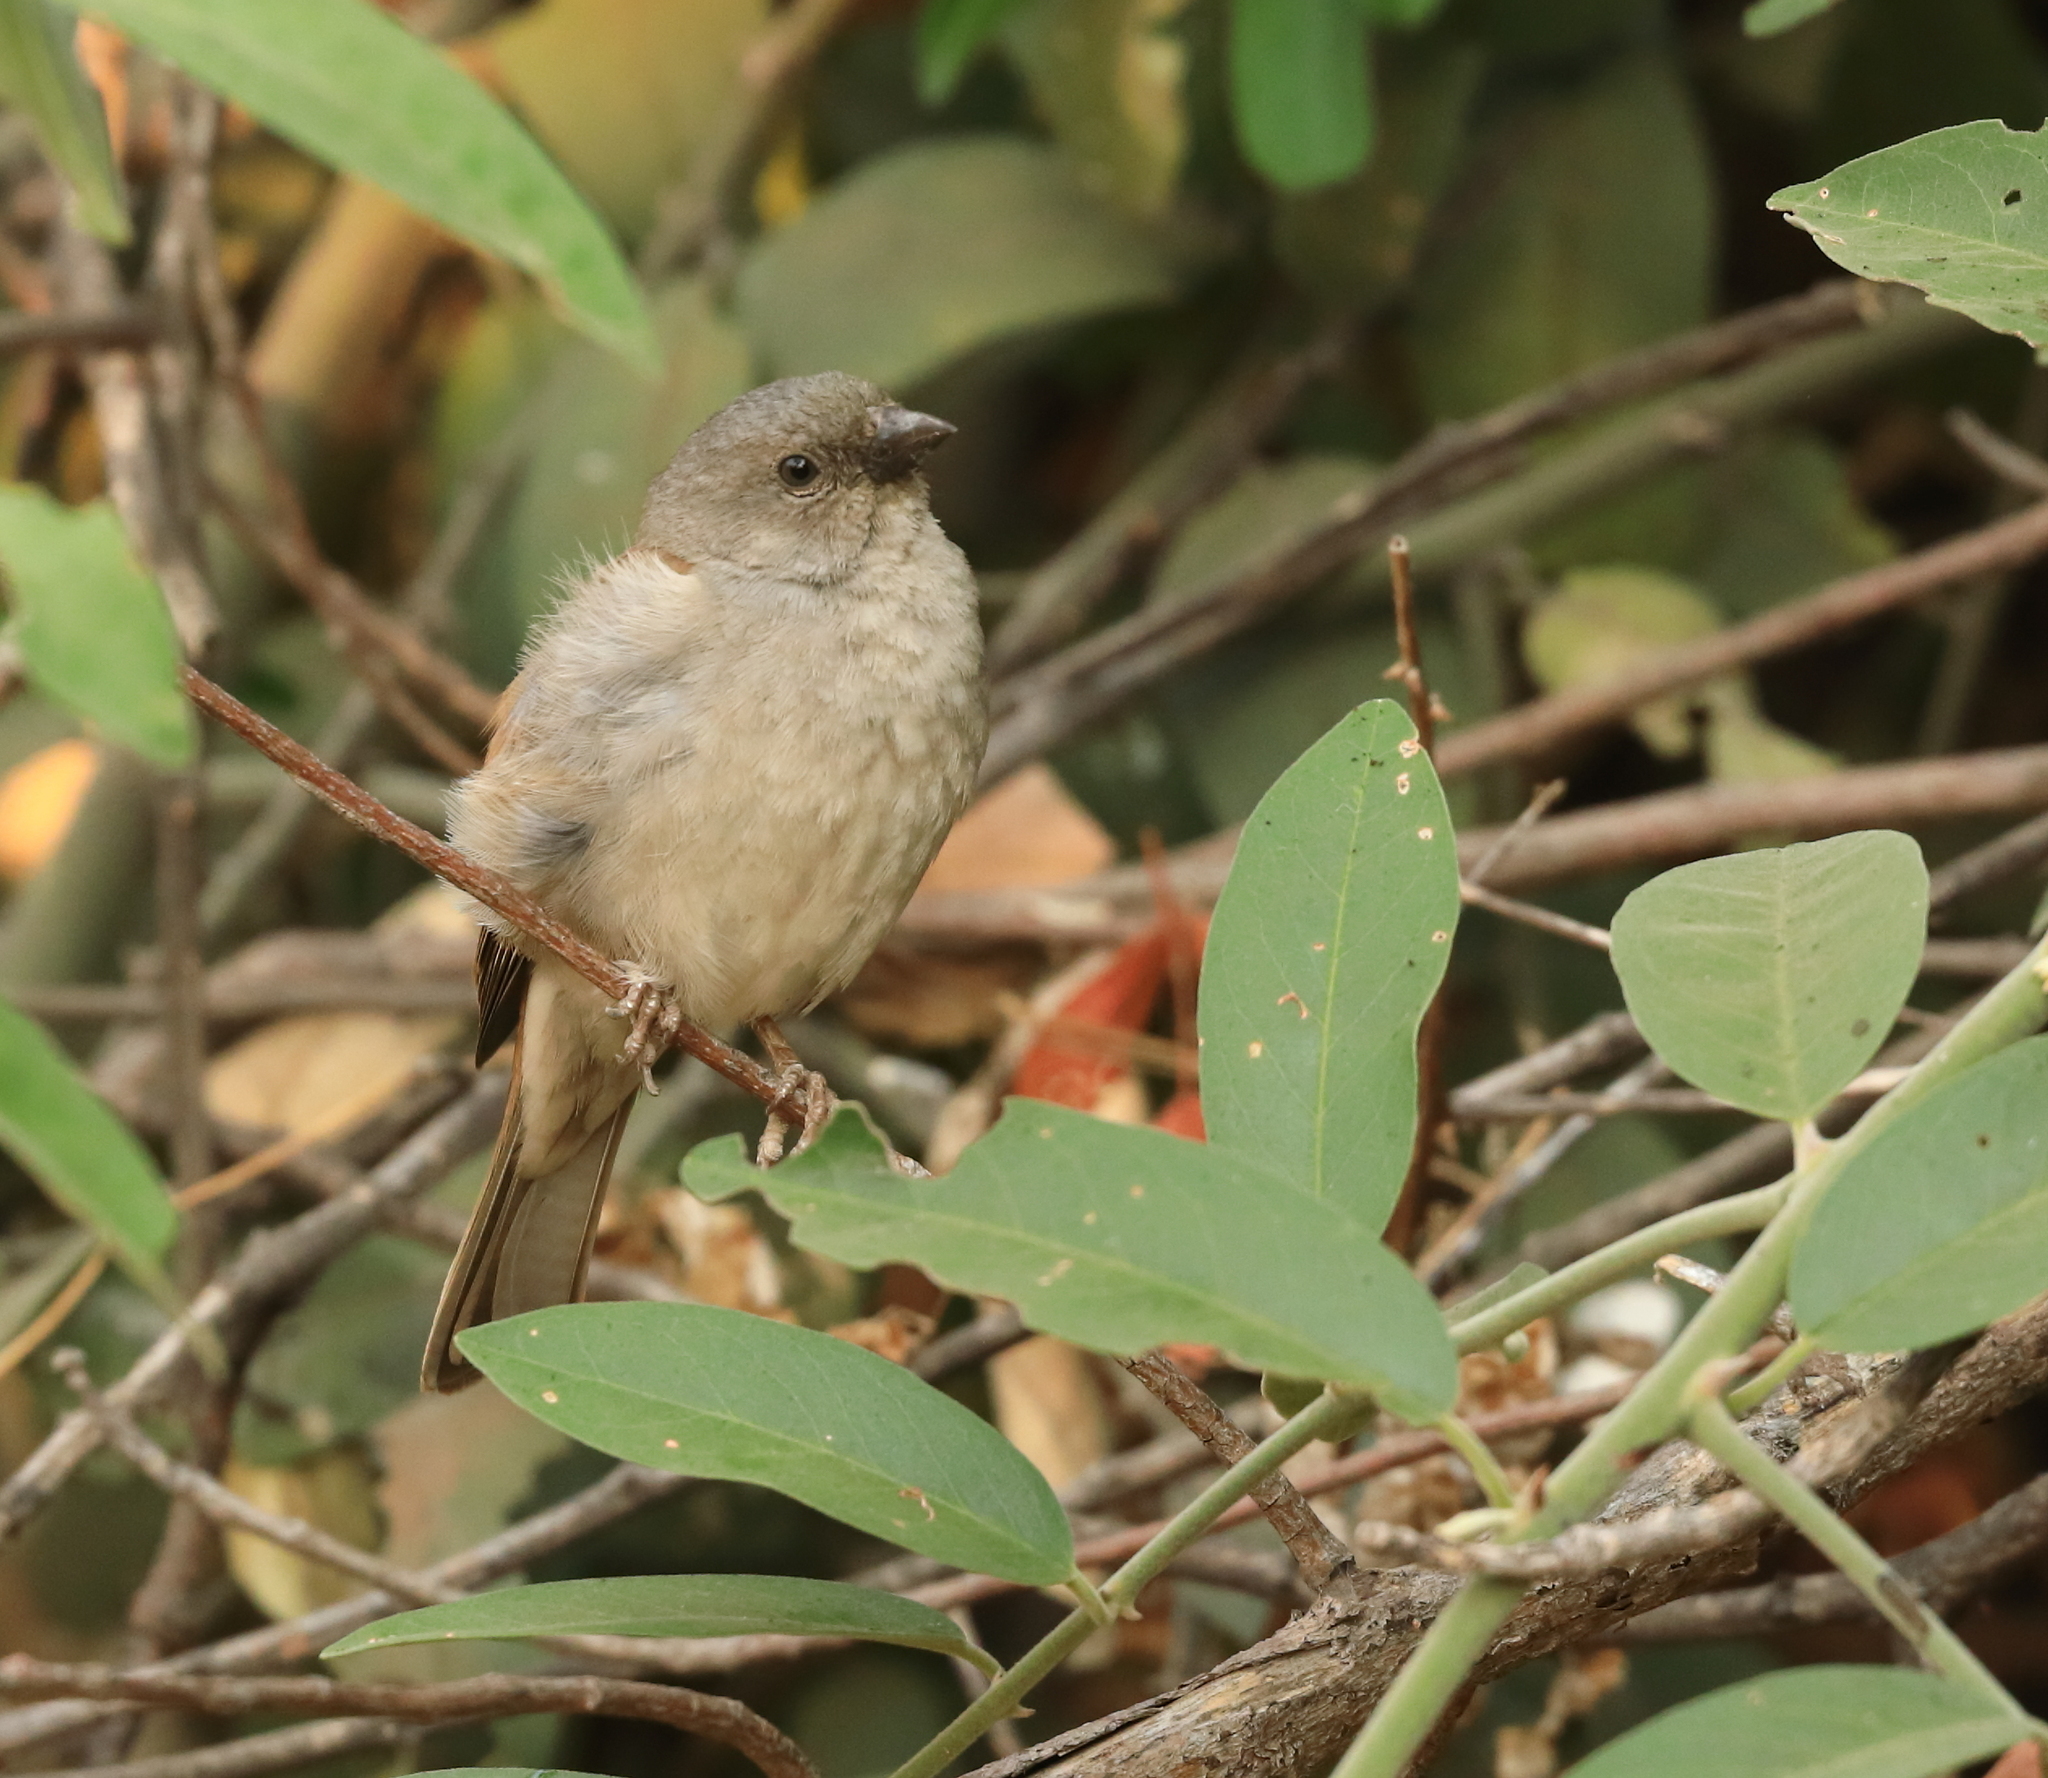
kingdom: Animalia
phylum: Chordata
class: Aves
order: Passeriformes
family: Passeridae
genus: Passer
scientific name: Passer diffusus
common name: Southern grey-headed sparrow
